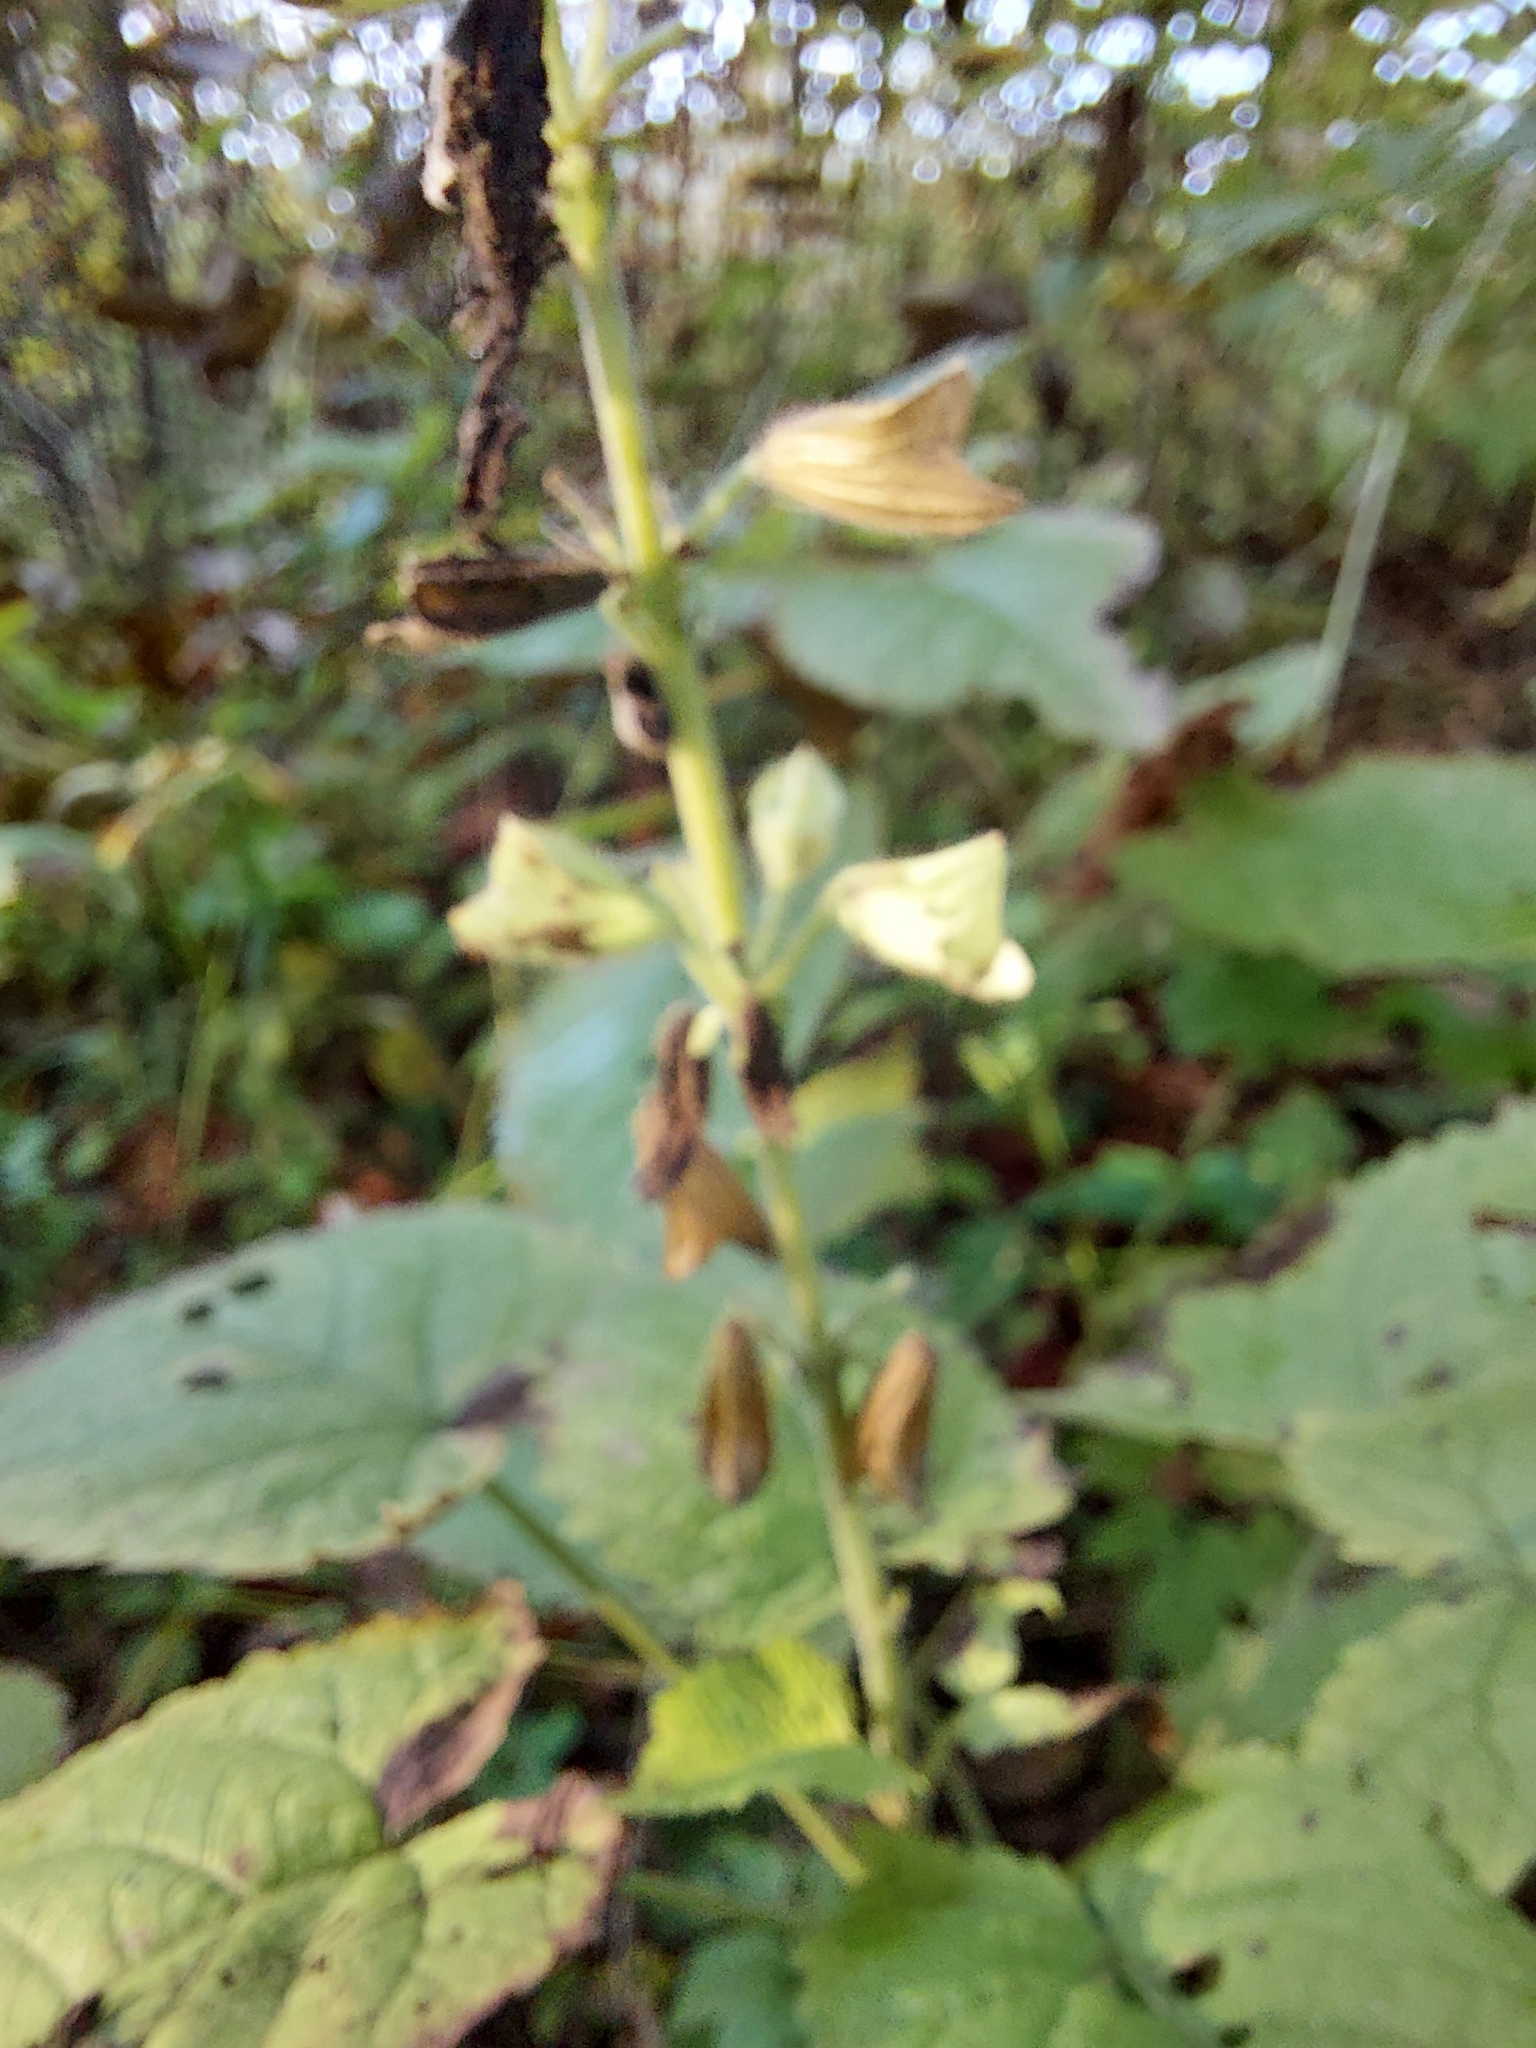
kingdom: Plantae
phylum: Tracheophyta
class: Magnoliopsida
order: Lamiales
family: Lamiaceae
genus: Salvia
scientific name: Salvia glutinosa
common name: Sticky clary
